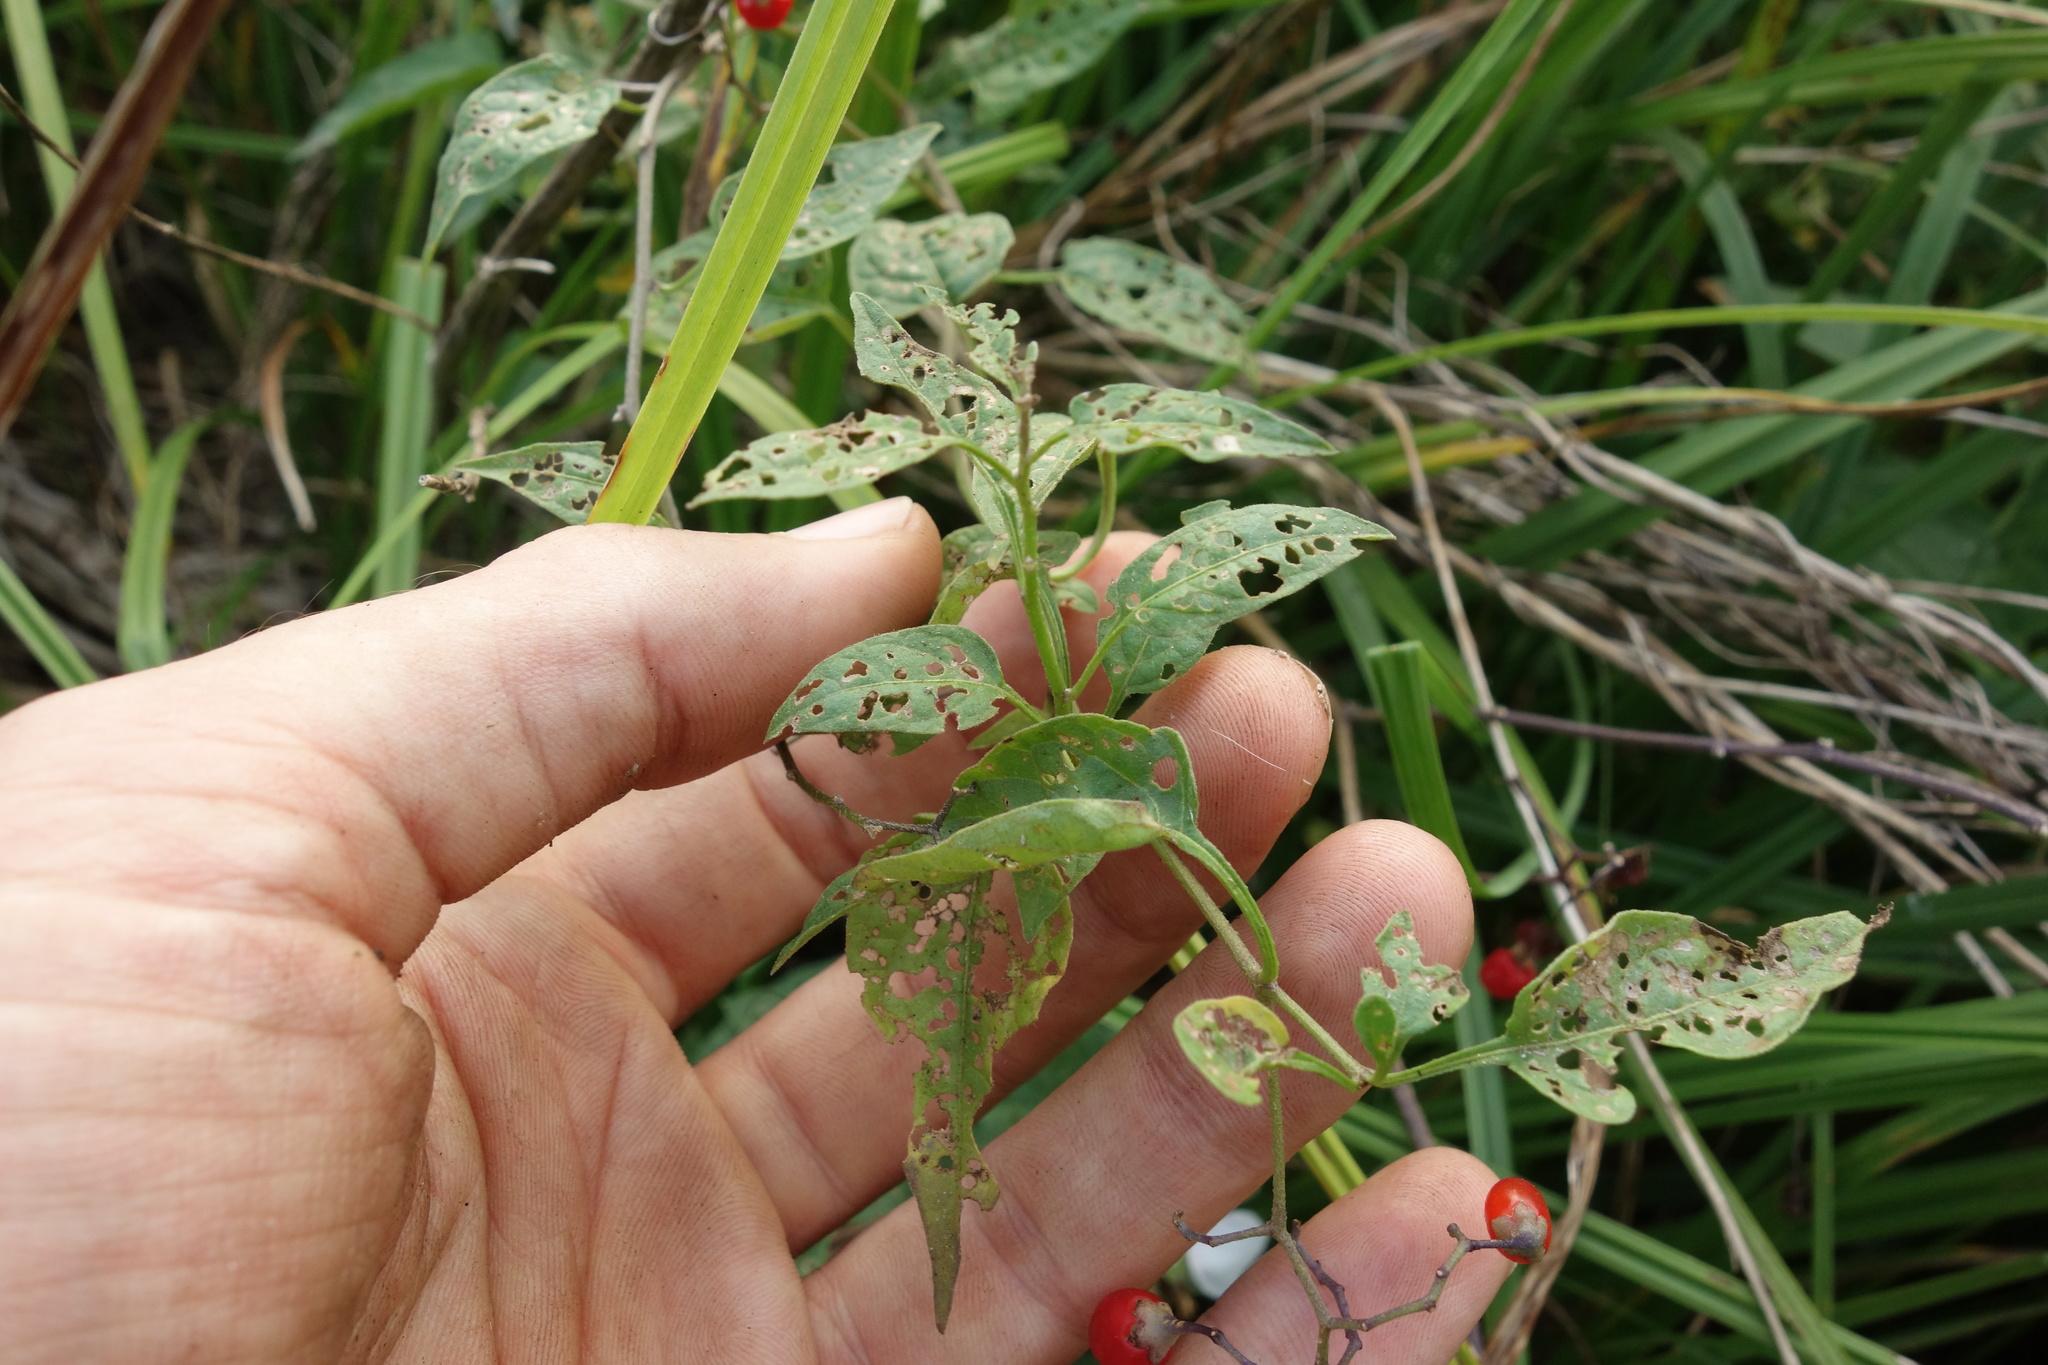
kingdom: Plantae
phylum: Tracheophyta
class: Magnoliopsida
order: Solanales
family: Solanaceae
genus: Solanum
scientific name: Solanum dulcamara
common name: Climbing nightshade
